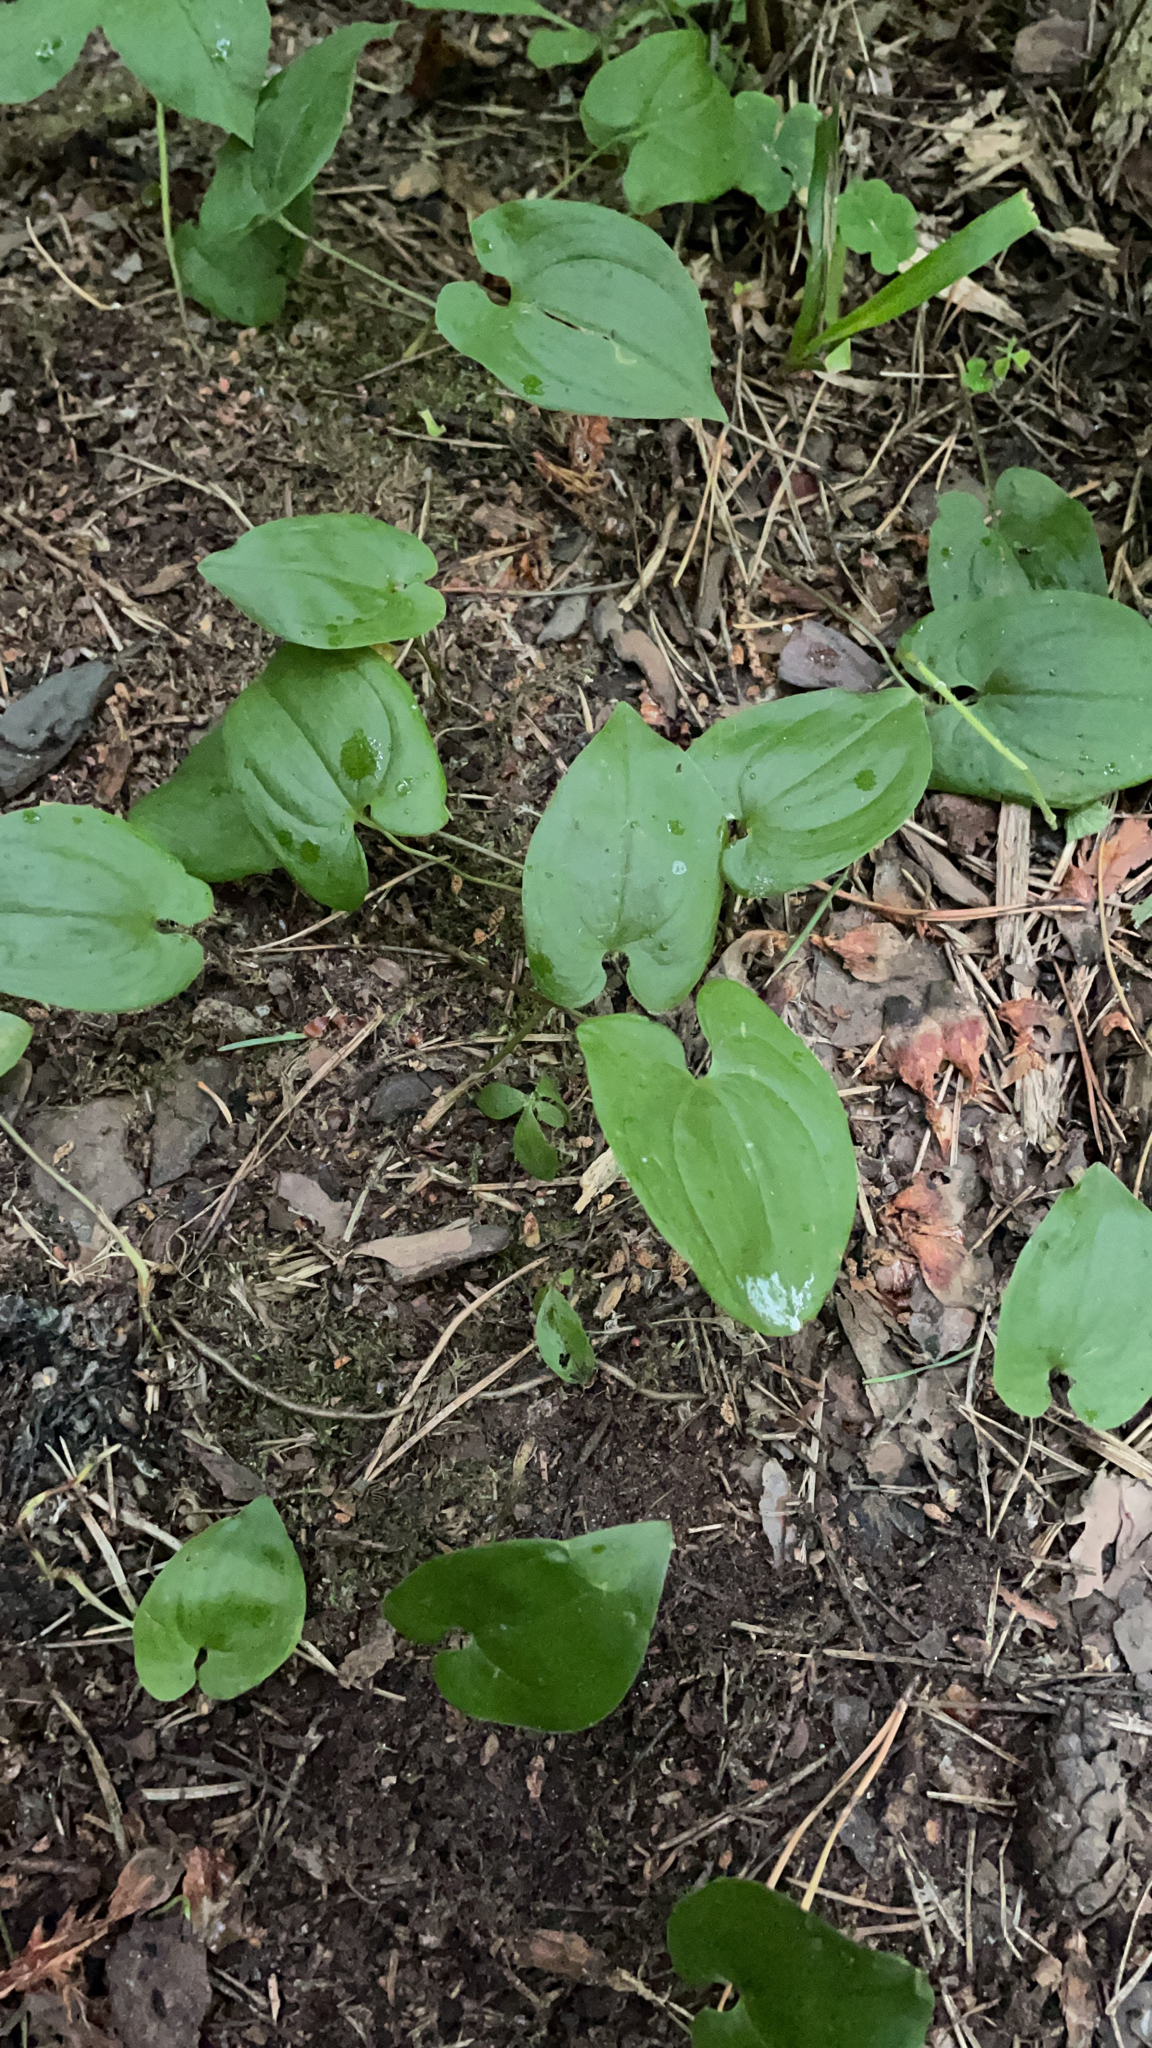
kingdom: Plantae
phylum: Tracheophyta
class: Liliopsida
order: Asparagales
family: Asparagaceae
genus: Maianthemum
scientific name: Maianthemum bifolium
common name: May lily
